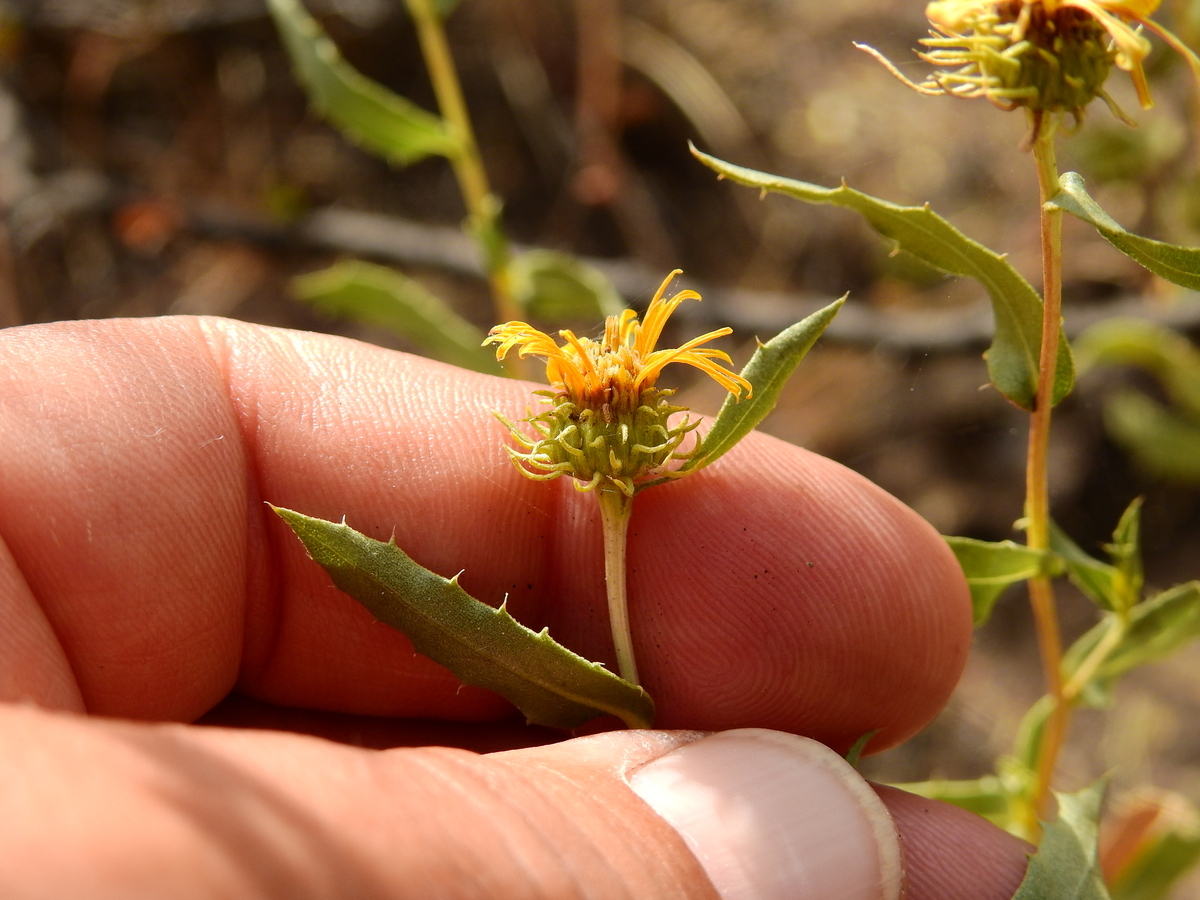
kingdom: Plantae
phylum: Tracheophyta
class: Magnoliopsida
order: Asterales
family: Asteraceae
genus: Grindelia
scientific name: Grindelia pulchella
